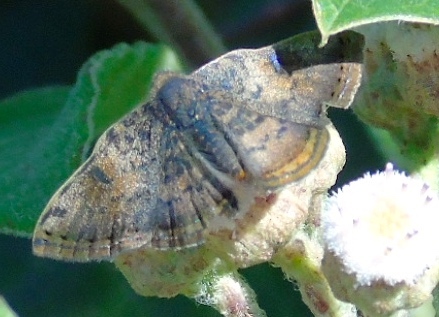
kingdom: Animalia
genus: Caria
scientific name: Caria ino
